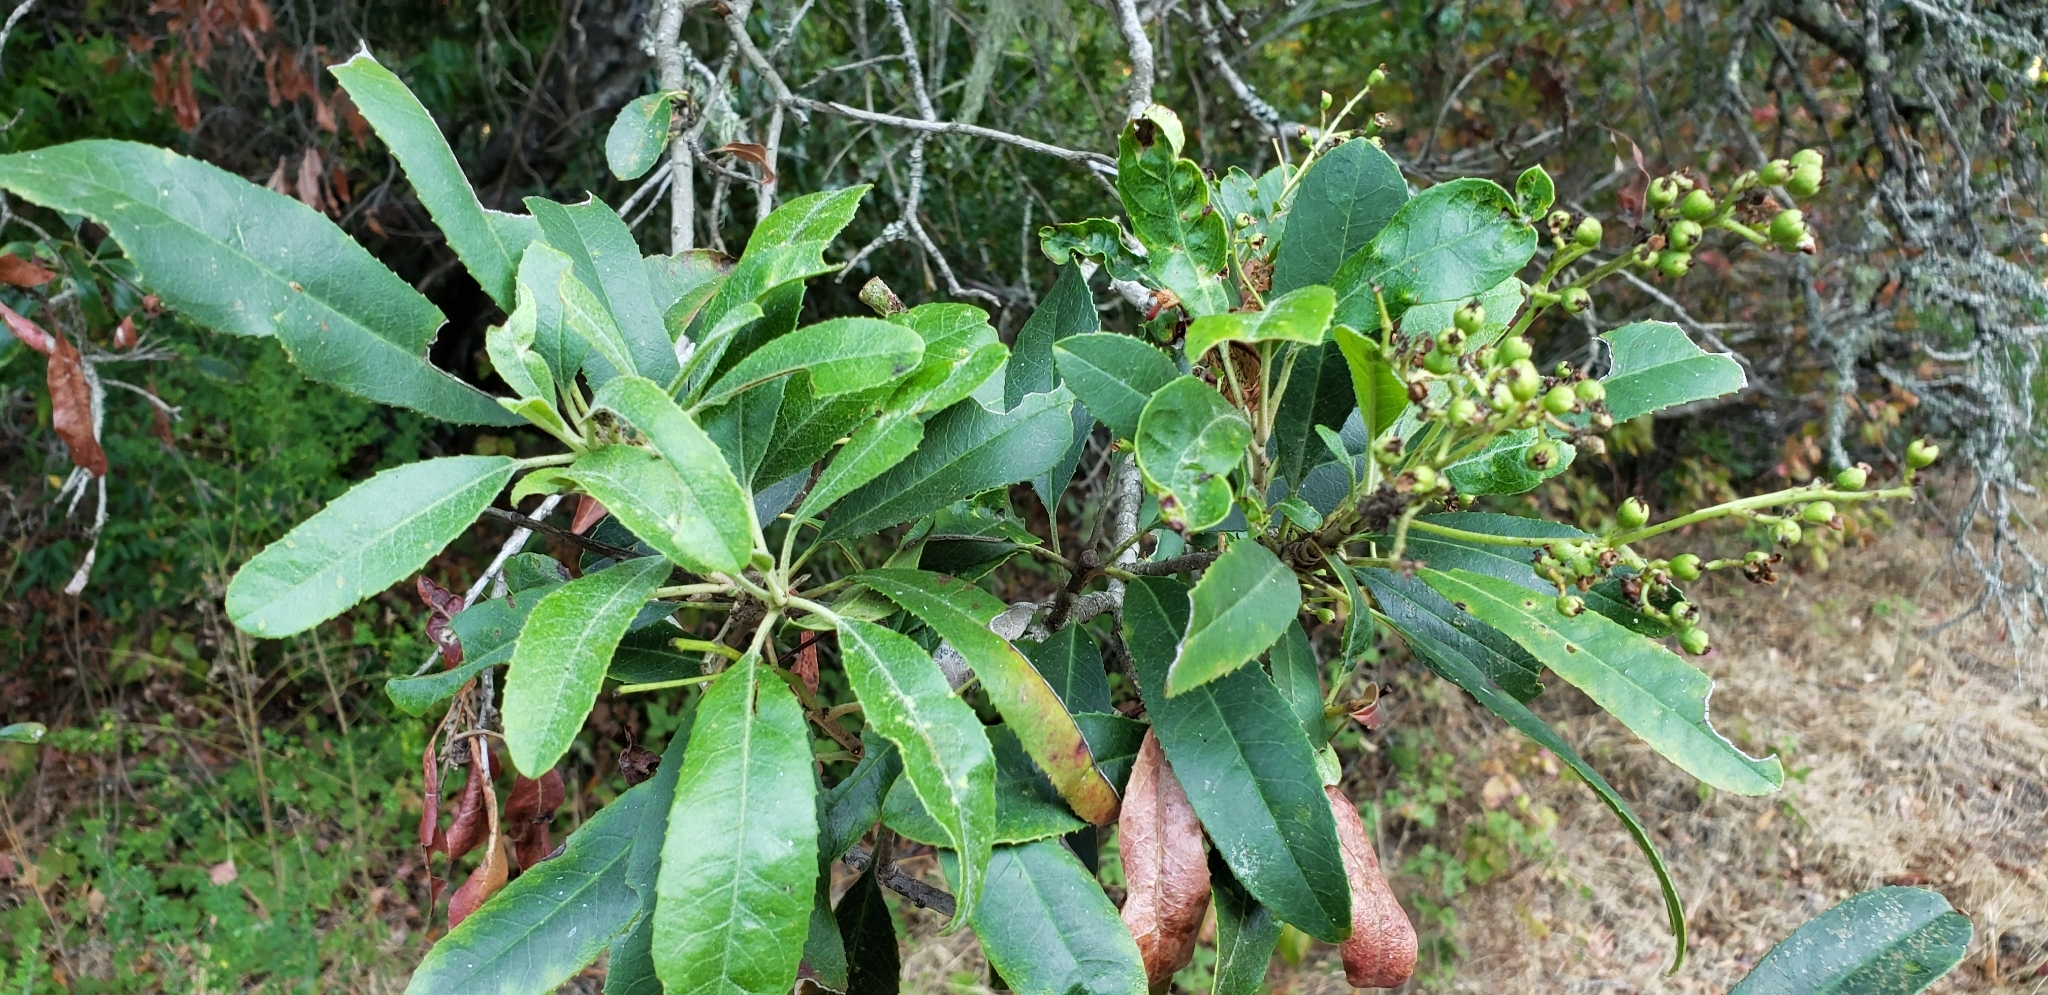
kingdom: Plantae
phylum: Tracheophyta
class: Magnoliopsida
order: Rosales
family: Rosaceae
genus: Heteromeles
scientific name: Heteromeles arbutifolia
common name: California-holly
